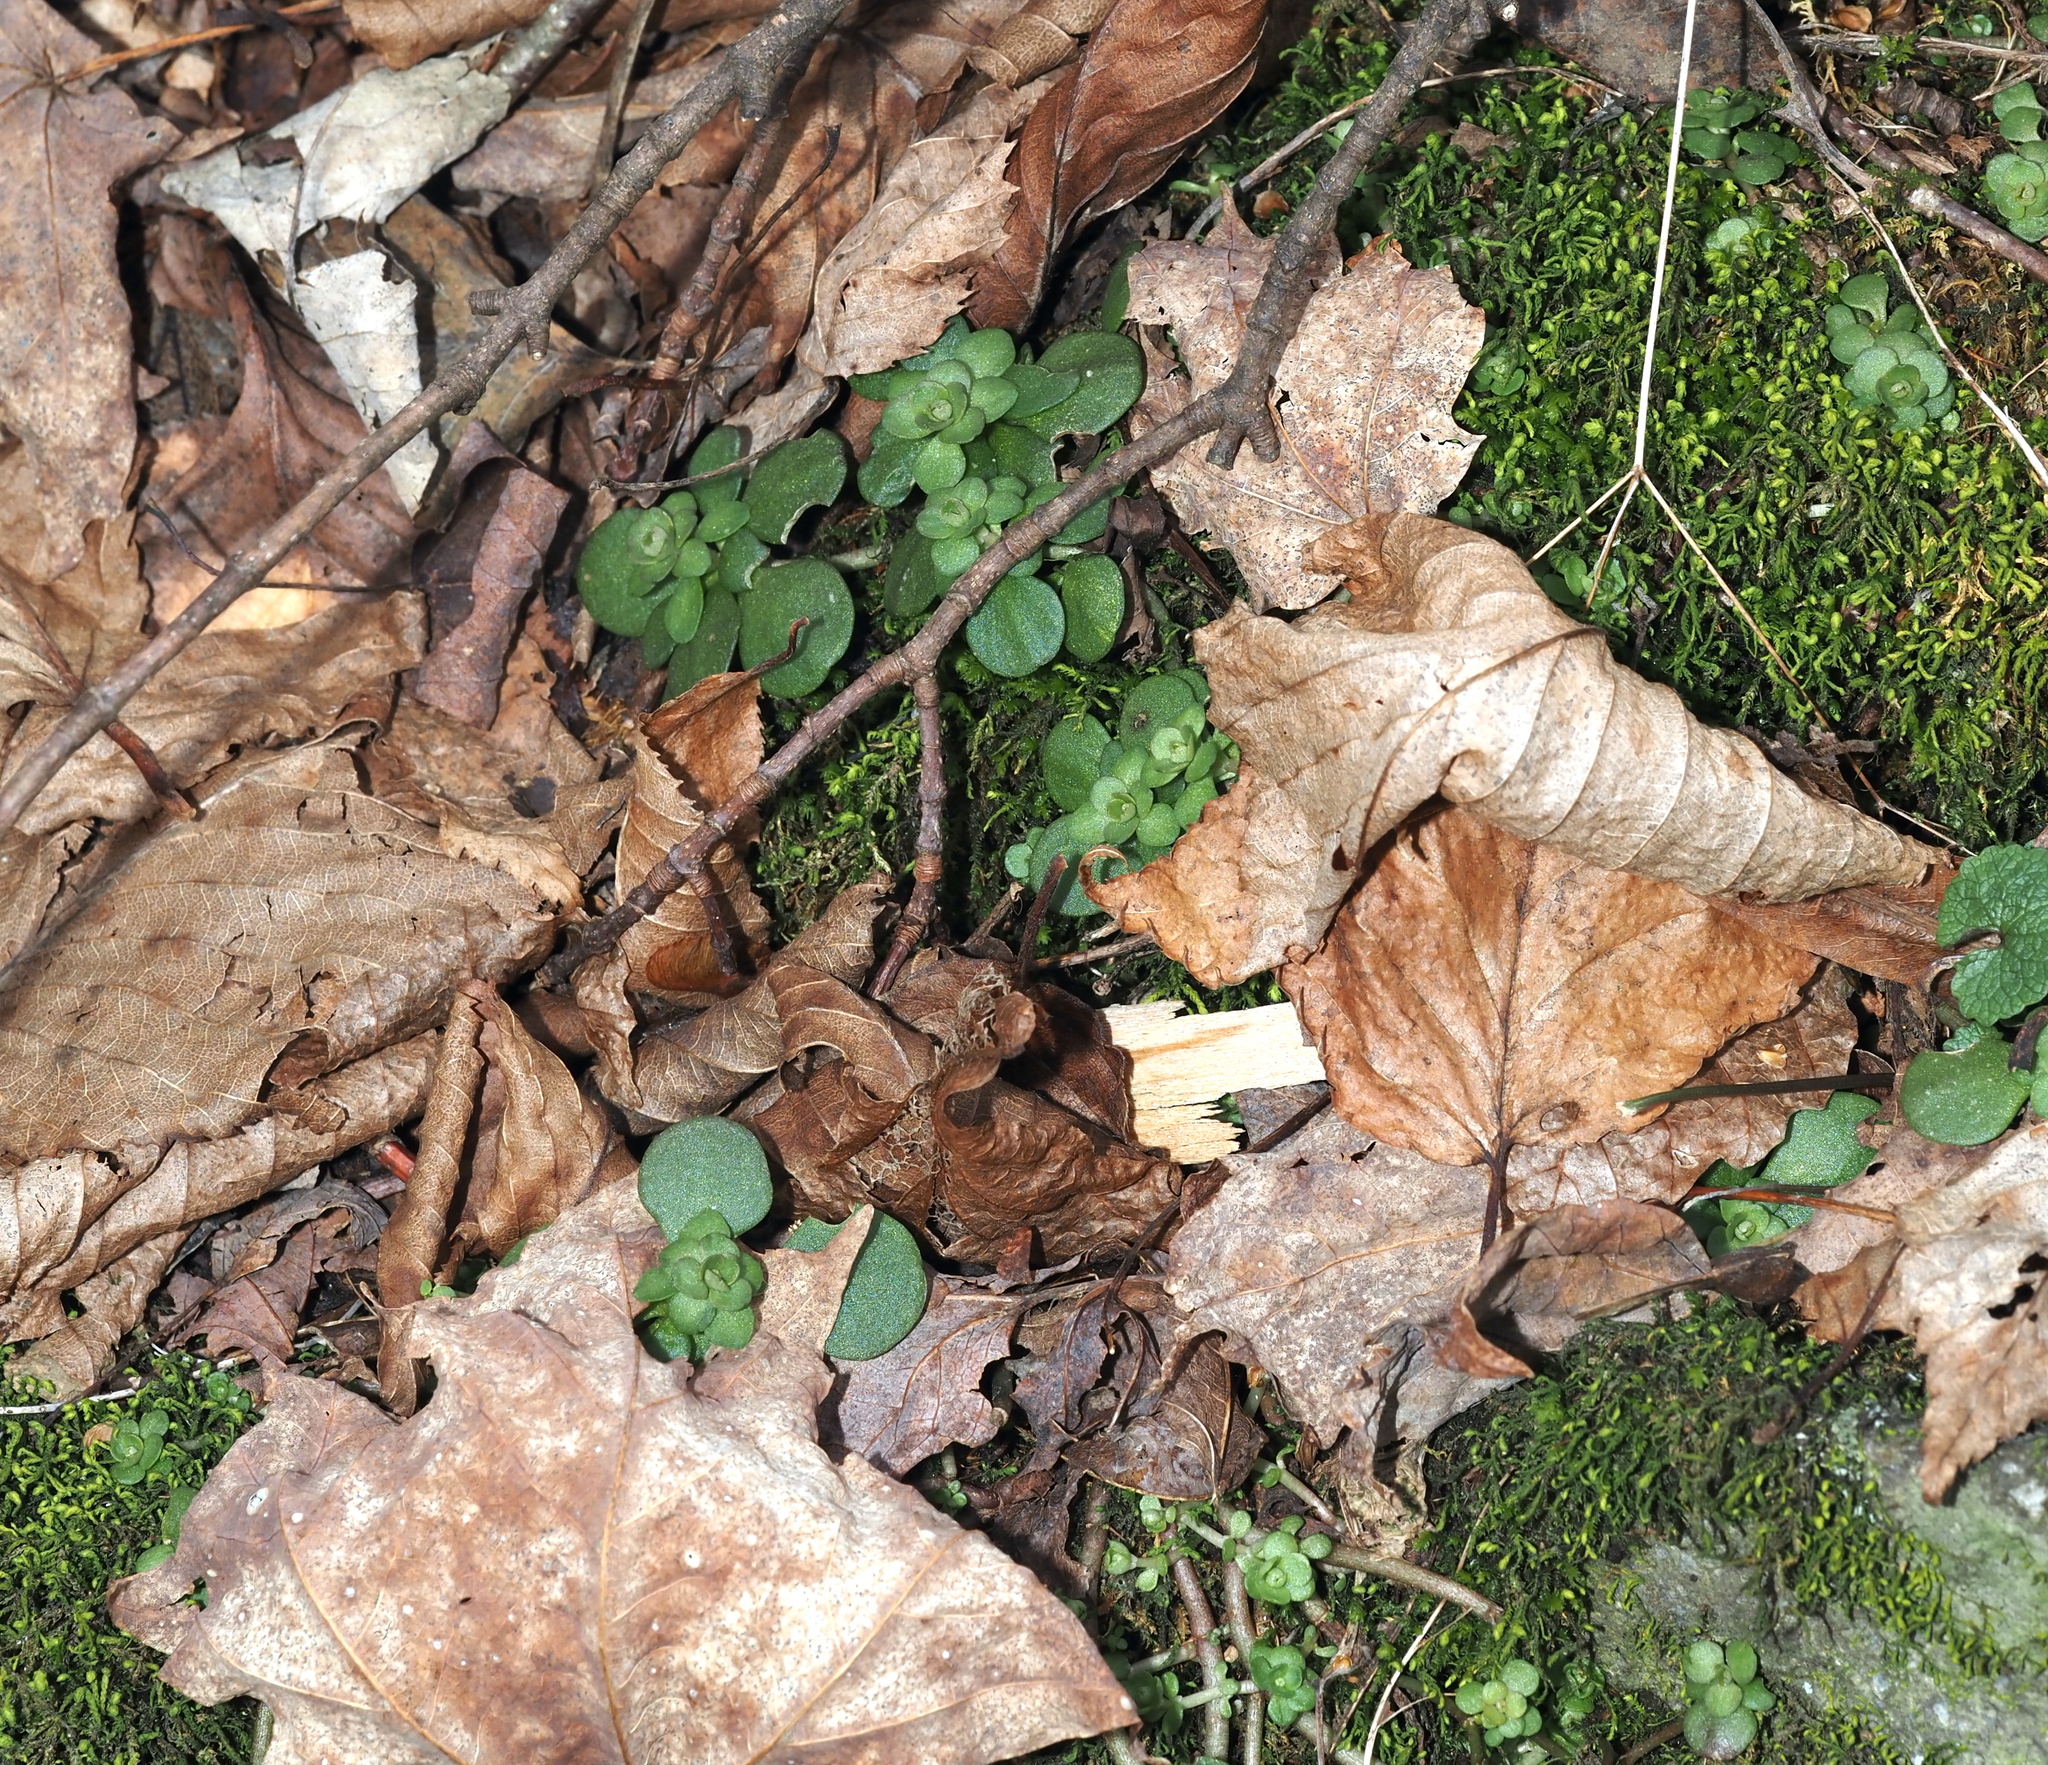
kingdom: Plantae
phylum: Tracheophyta
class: Magnoliopsida
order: Saxifragales
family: Crassulaceae
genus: Sedum
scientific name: Sedum ternatum
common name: Wild stonecrop
